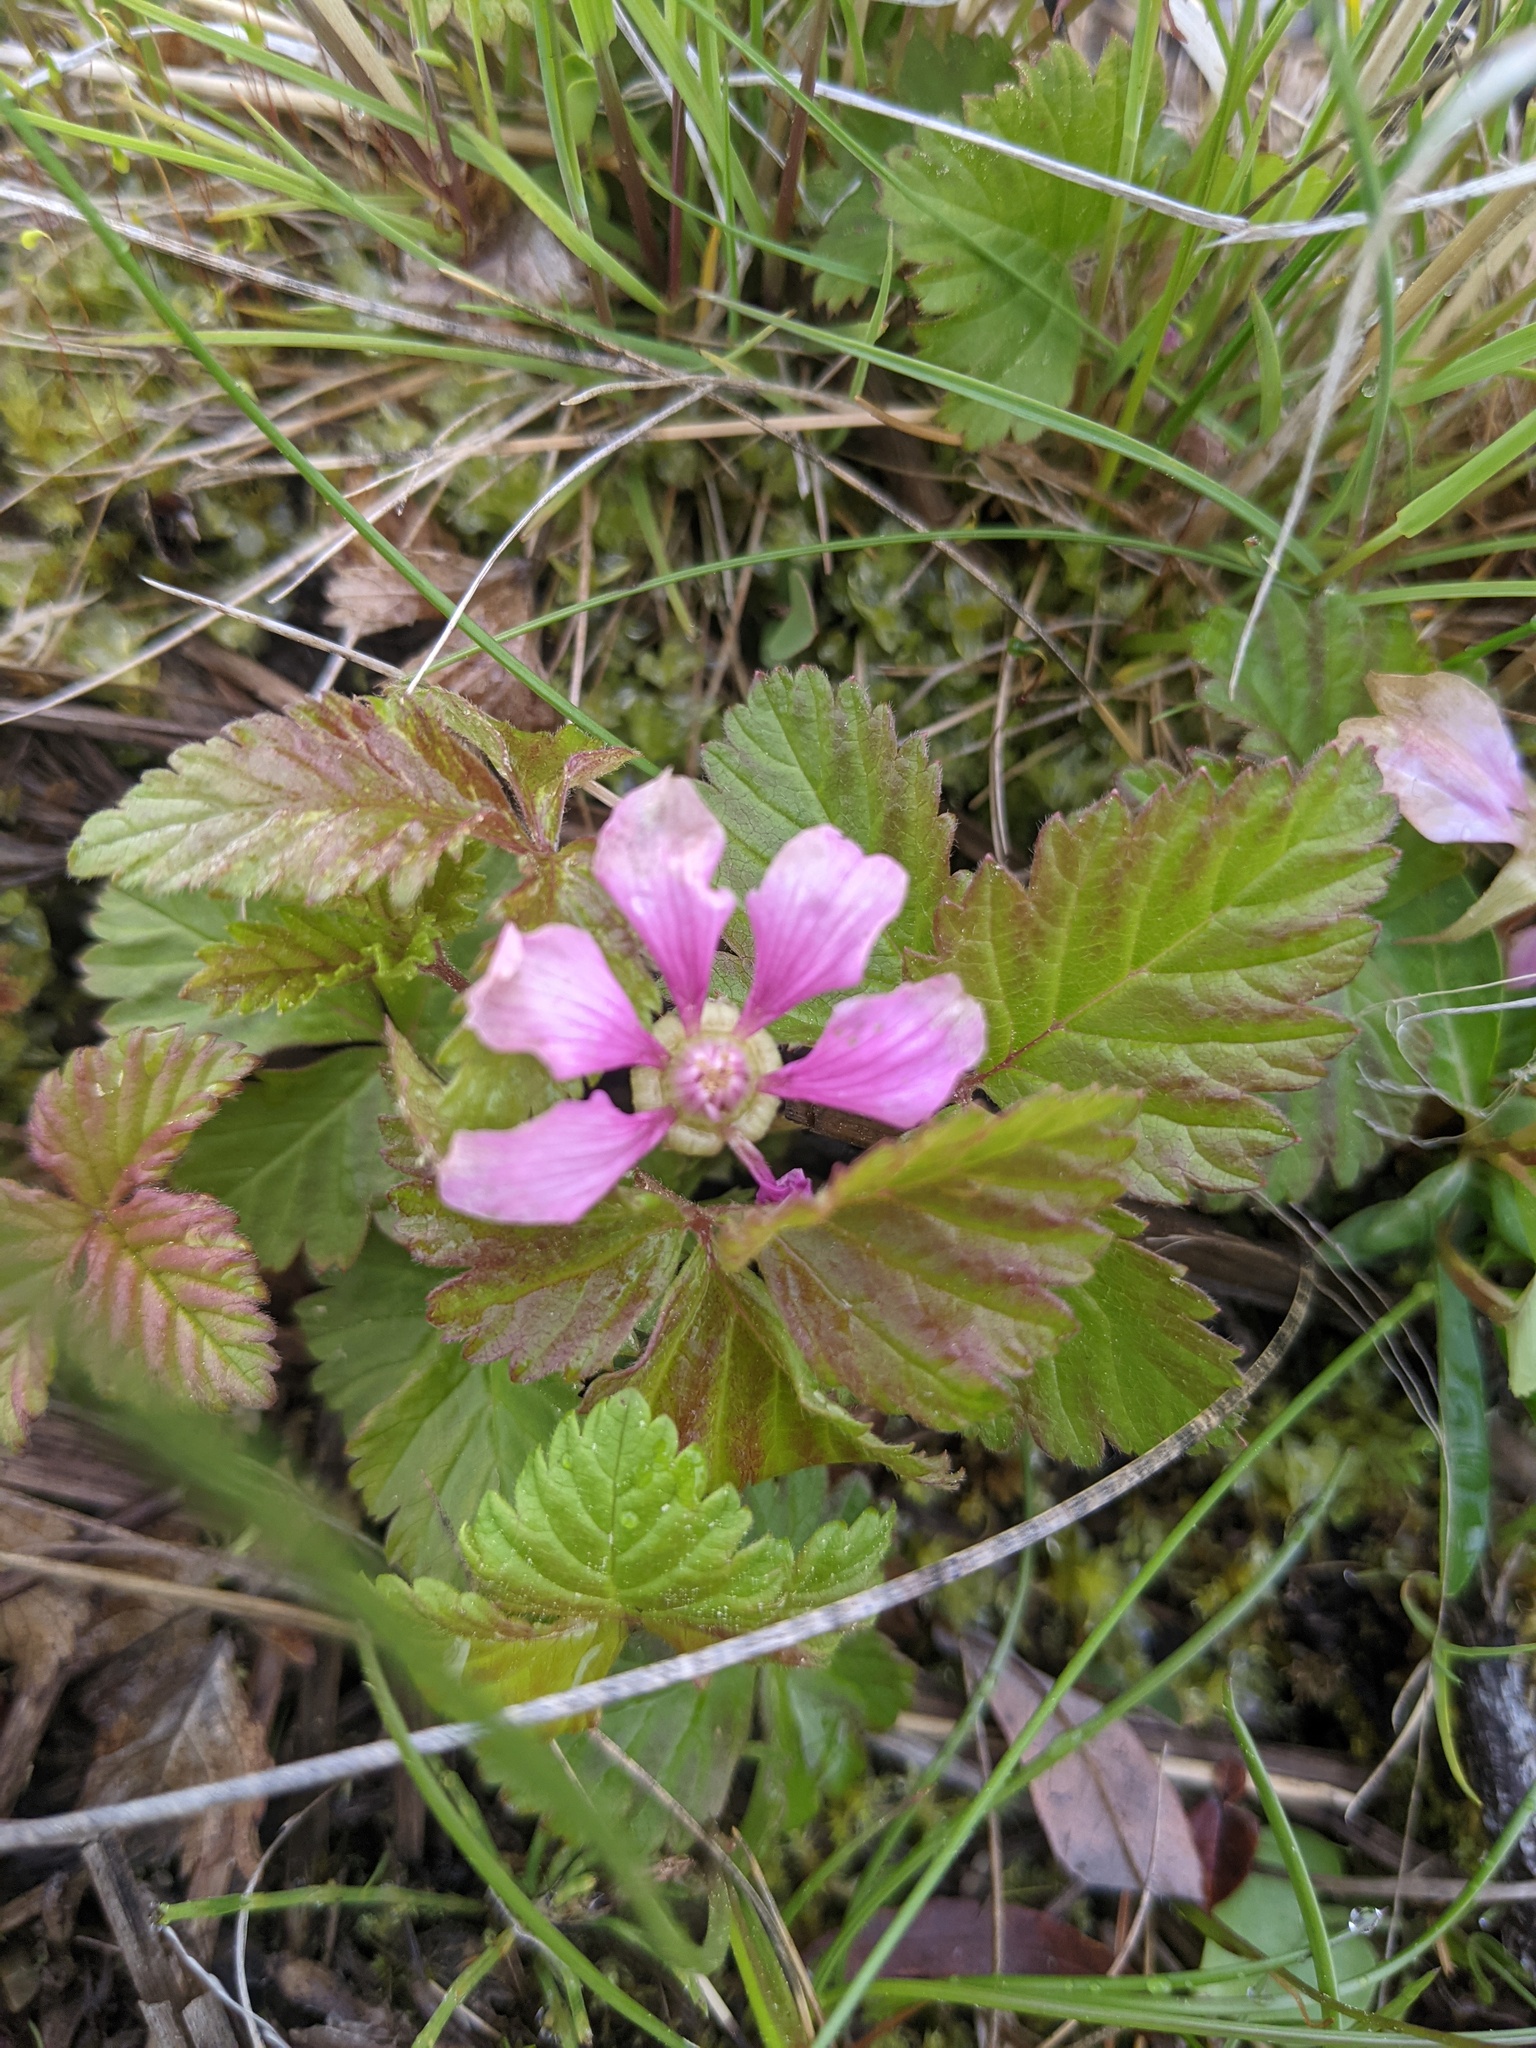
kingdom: Plantae
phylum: Tracheophyta
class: Magnoliopsida
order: Rosales
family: Rosaceae
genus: Rubus
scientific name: Rubus arcticus
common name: Arctic bramble
